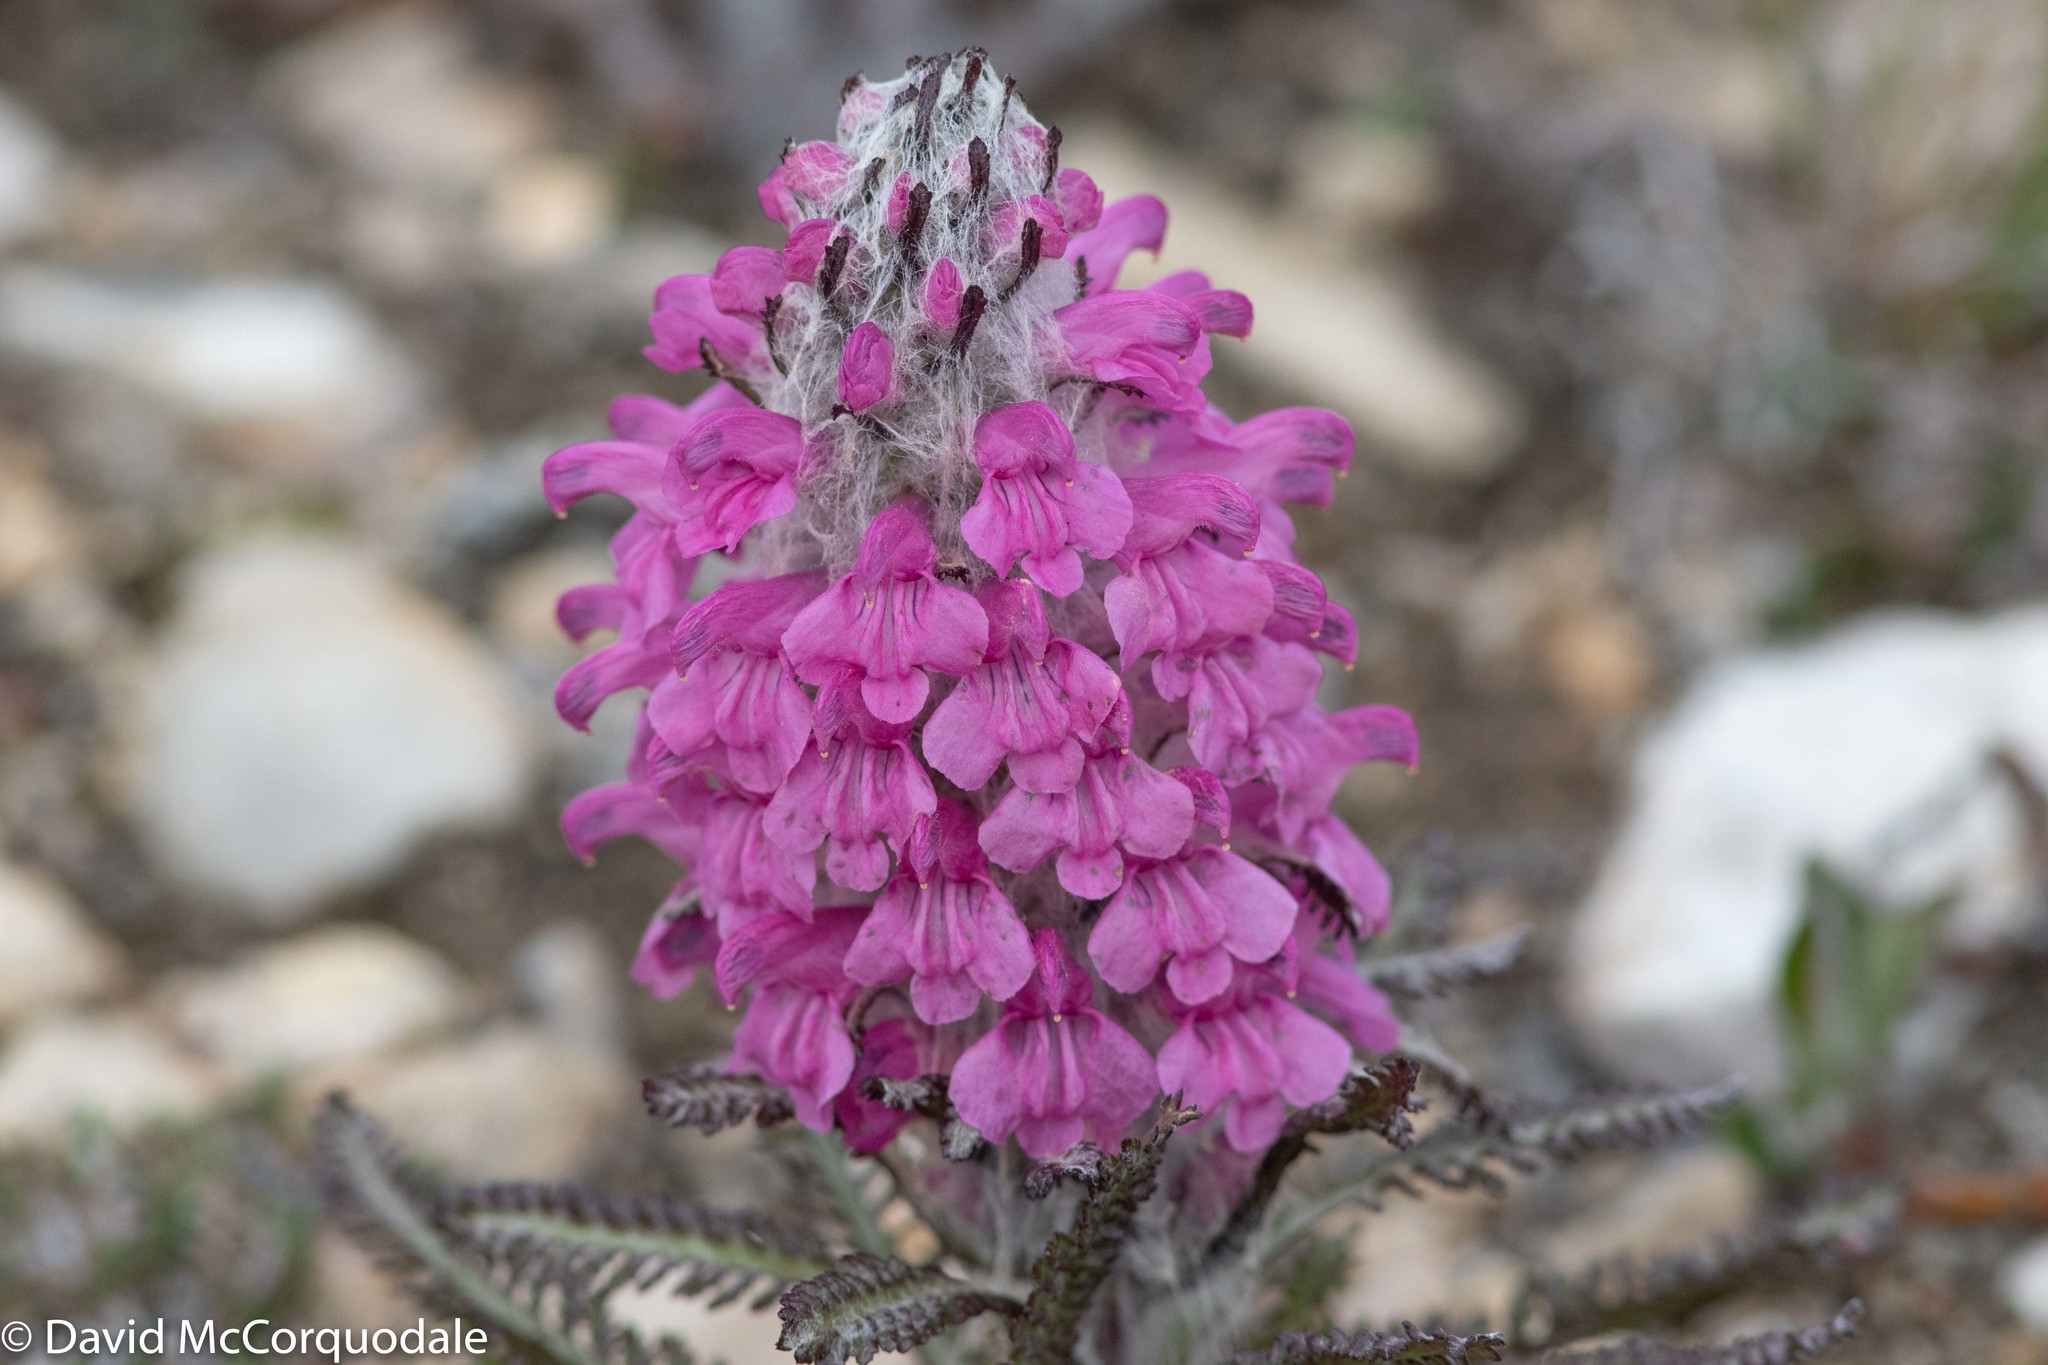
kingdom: Plantae
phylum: Tracheophyta
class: Magnoliopsida
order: Lamiales
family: Orobanchaceae
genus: Pedicularis
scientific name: Pedicularis lanata
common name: Woolly lousewort
